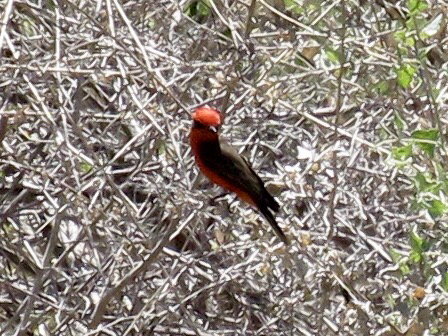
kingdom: Animalia
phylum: Chordata
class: Aves
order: Passeriformes
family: Tyrannidae
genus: Pyrocephalus
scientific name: Pyrocephalus rubinus
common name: Vermilion flycatcher
